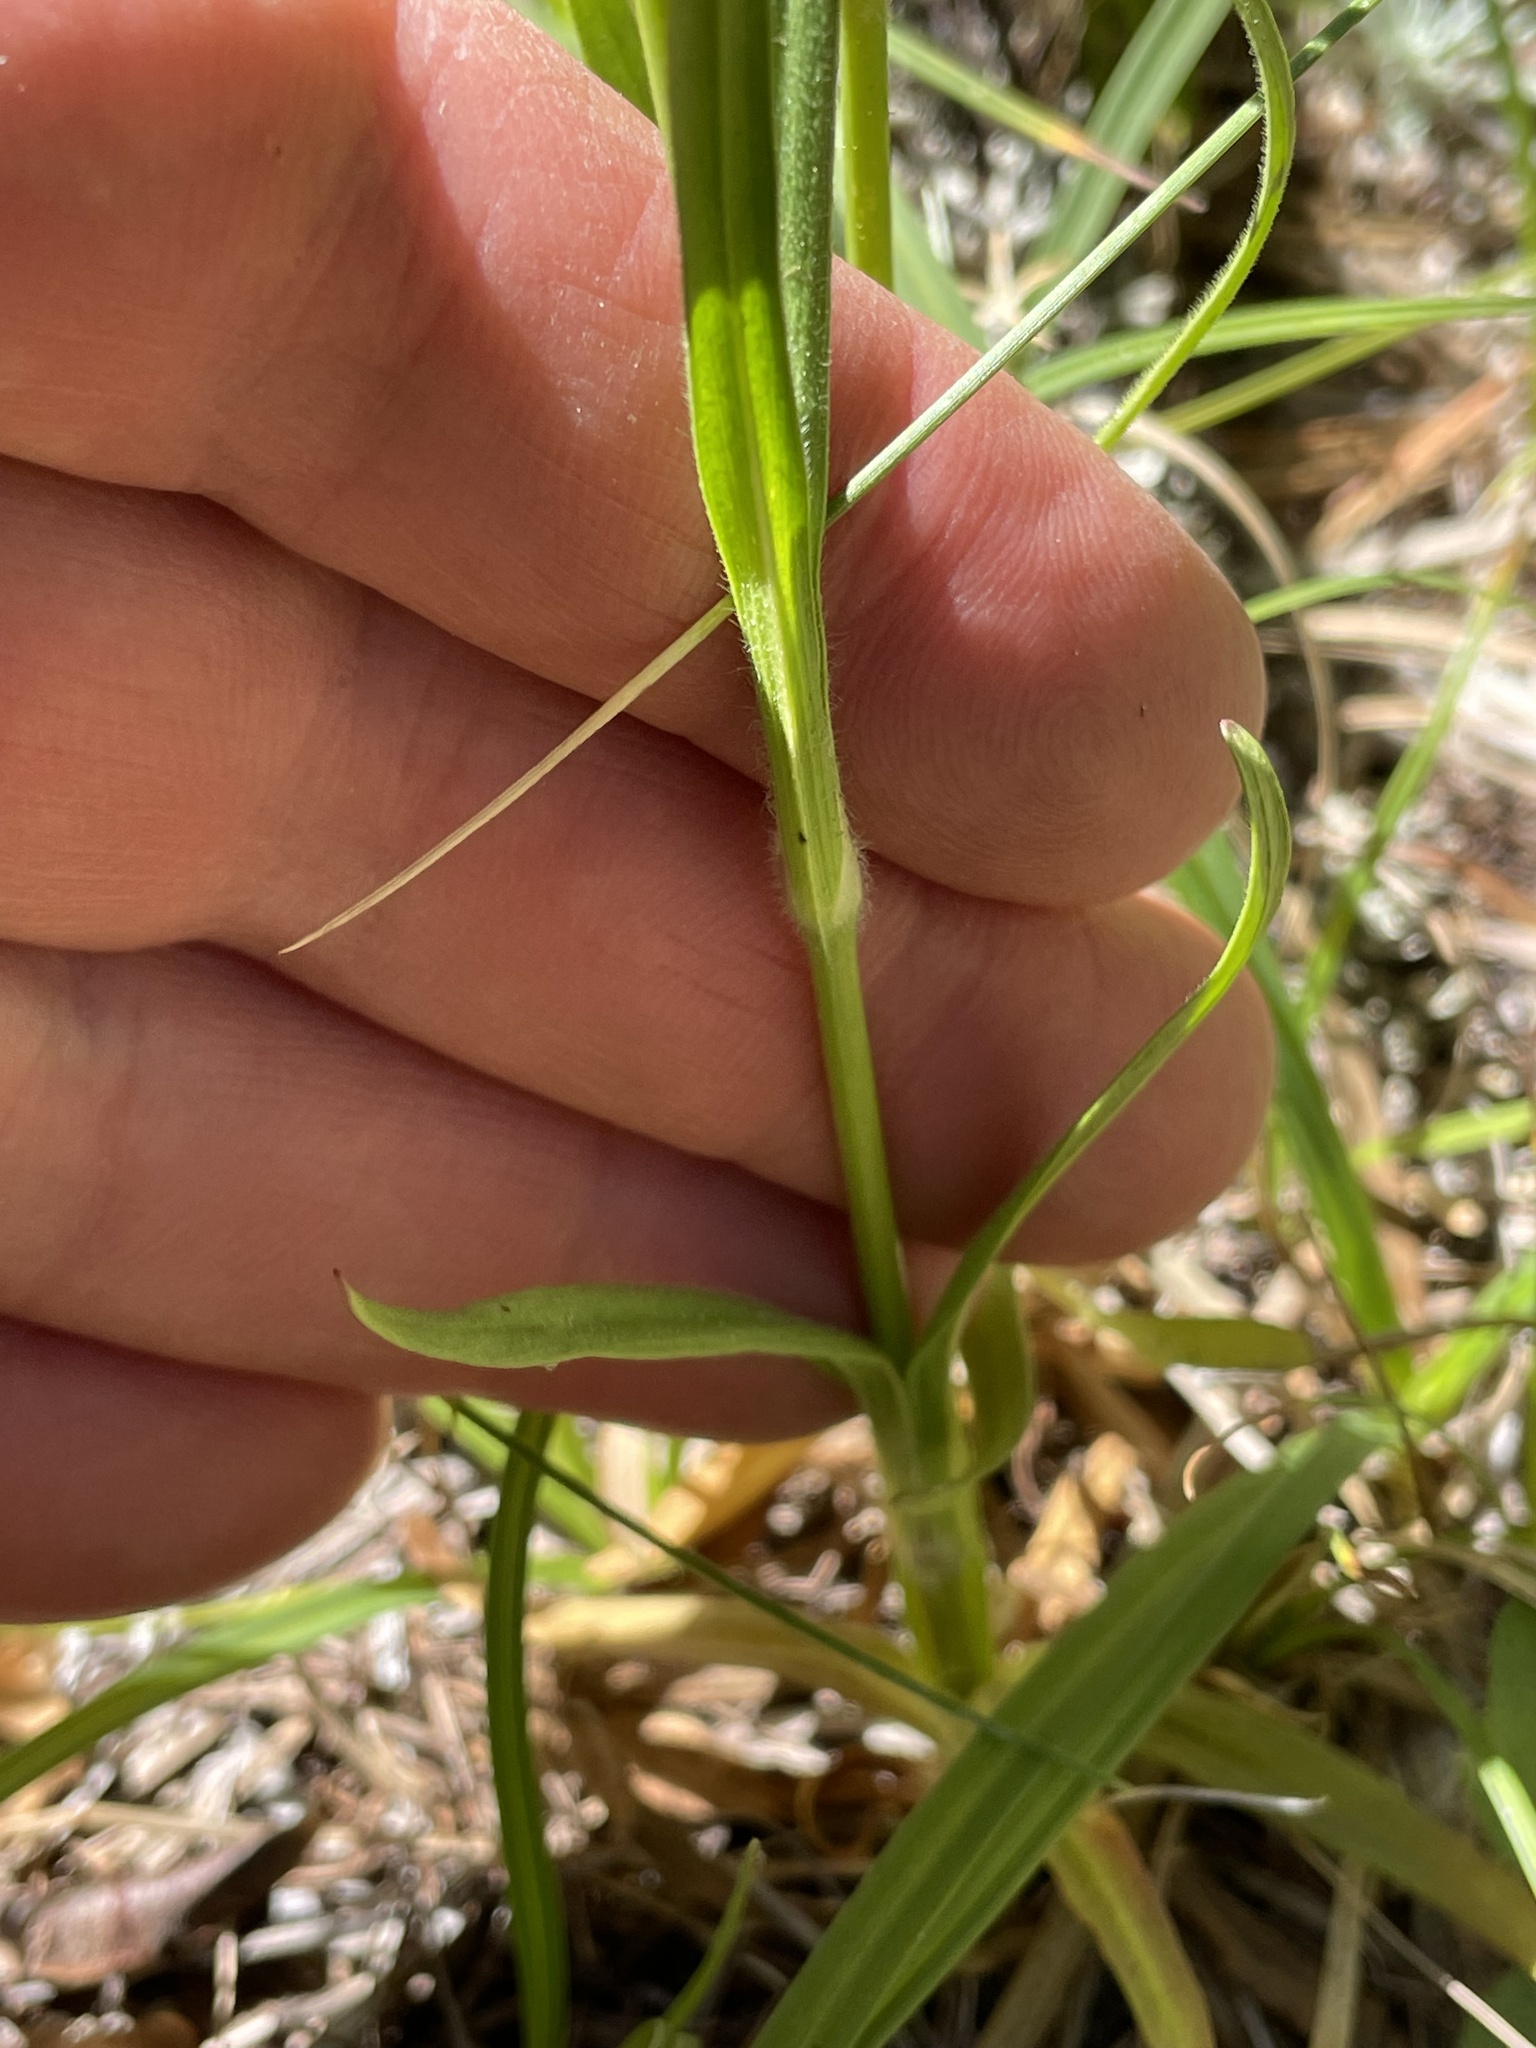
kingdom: Plantae
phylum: Tracheophyta
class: Magnoliopsida
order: Caryophyllales
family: Caryophyllaceae
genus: Dianthus
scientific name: Dianthus armeria
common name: Deptford pink
